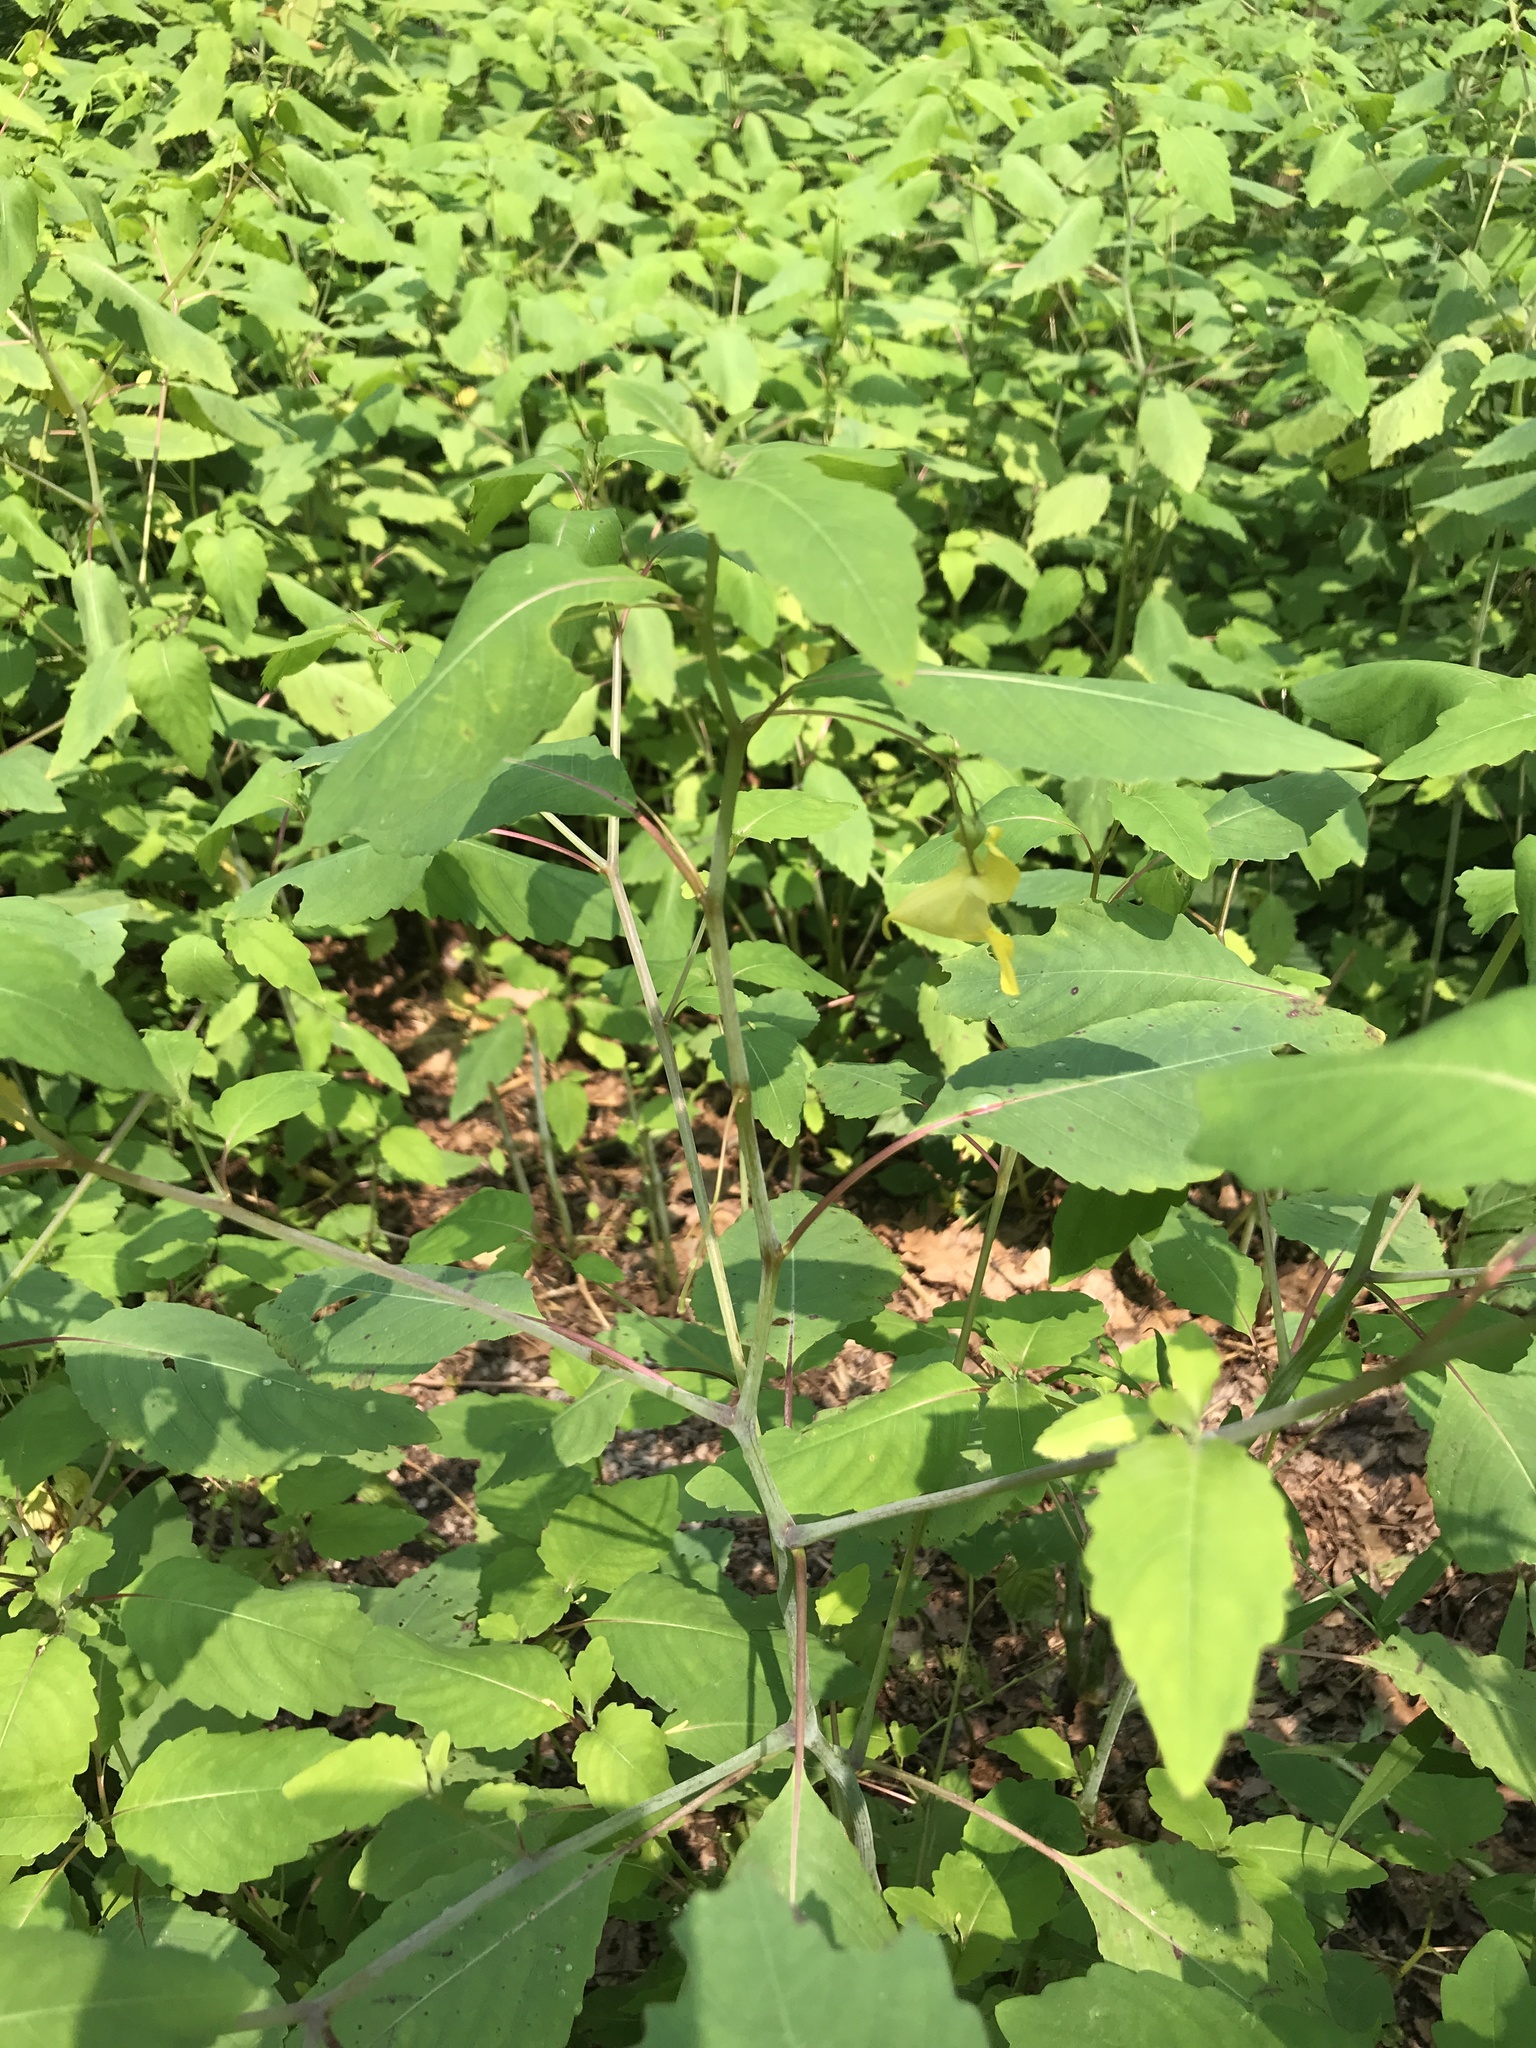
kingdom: Plantae
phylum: Tracheophyta
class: Magnoliopsida
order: Ericales
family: Balsaminaceae
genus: Impatiens
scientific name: Impatiens pallida
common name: Pale snapweed
